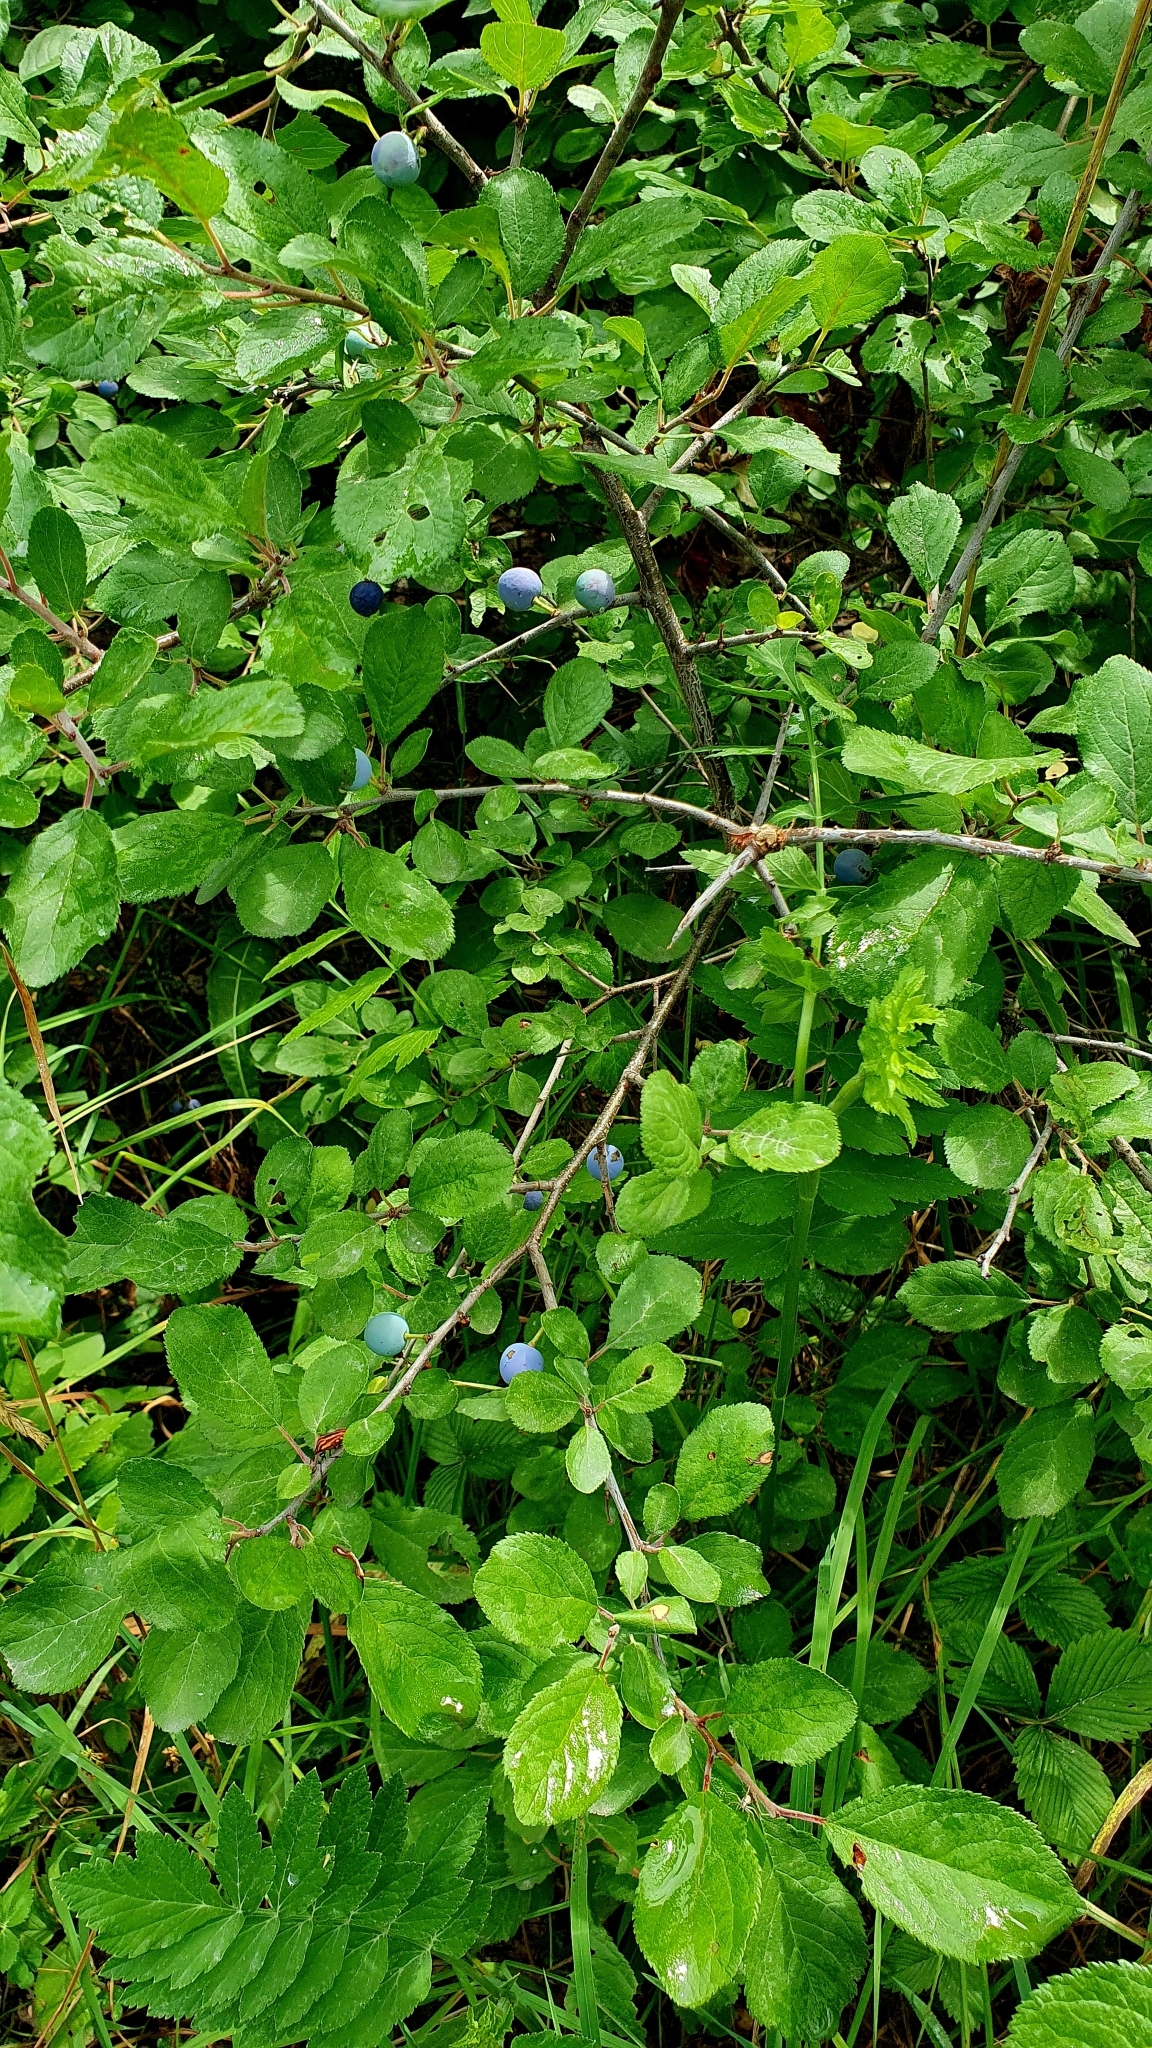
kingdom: Plantae
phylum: Tracheophyta
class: Magnoliopsida
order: Rosales
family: Rosaceae
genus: Prunus
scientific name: Prunus spinosa
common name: Blackthorn
